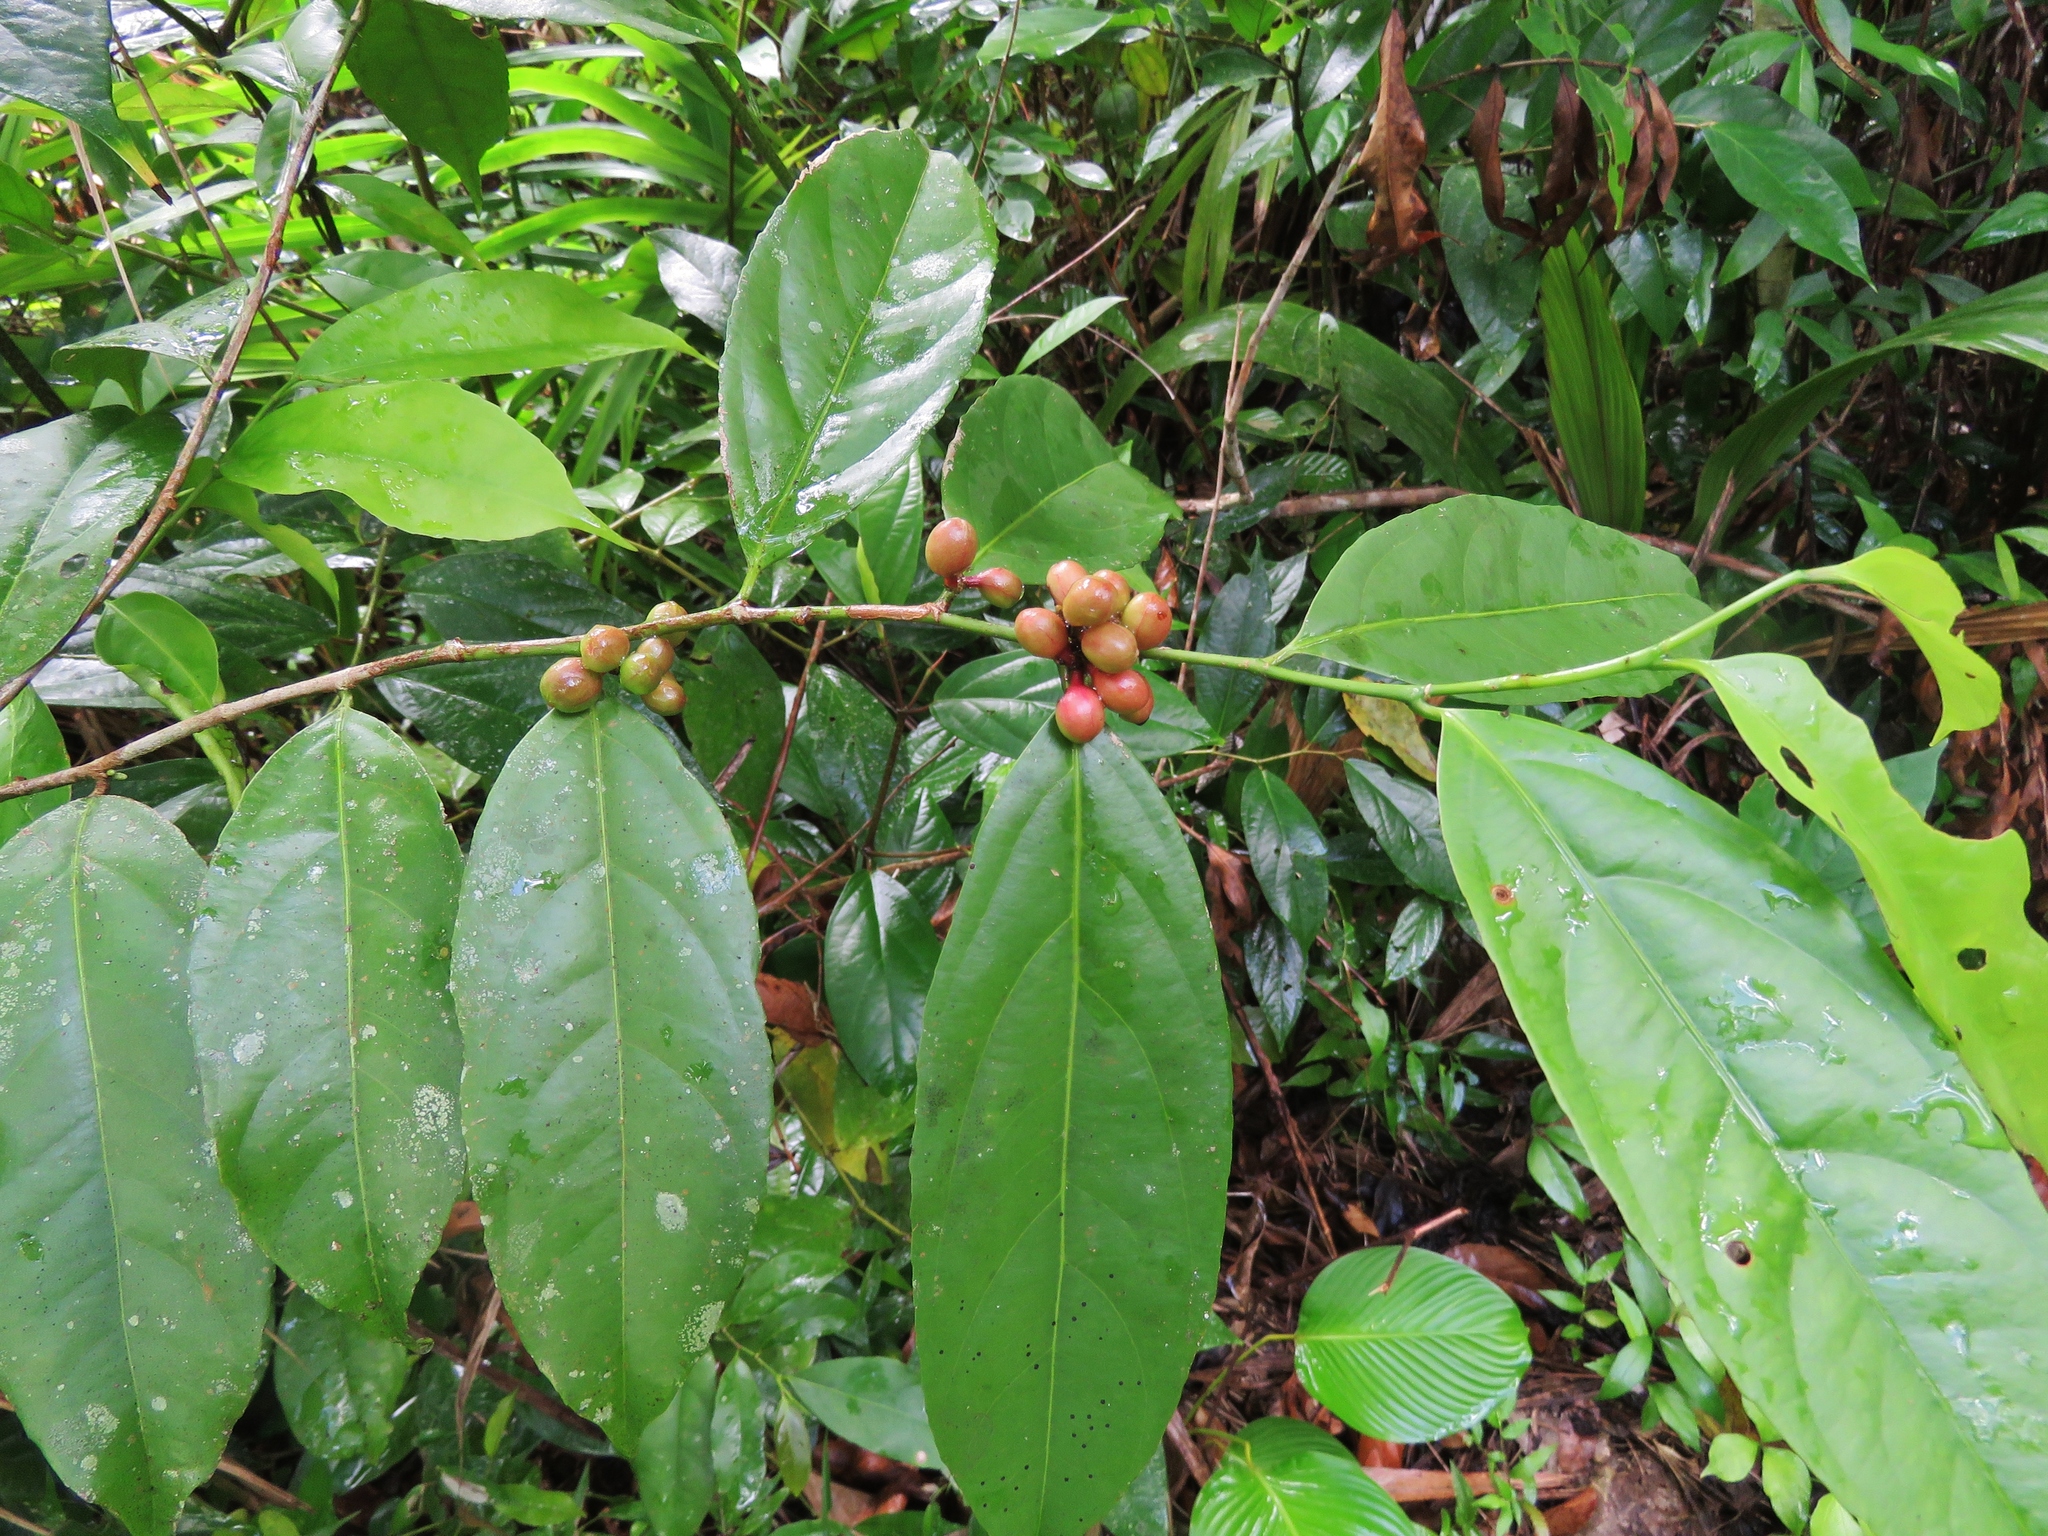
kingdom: Plantae
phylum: Tracheophyta
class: Magnoliopsida
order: Gentianales
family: Rubiaceae
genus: Coffea
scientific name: Coffea arabica
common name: Coffee
